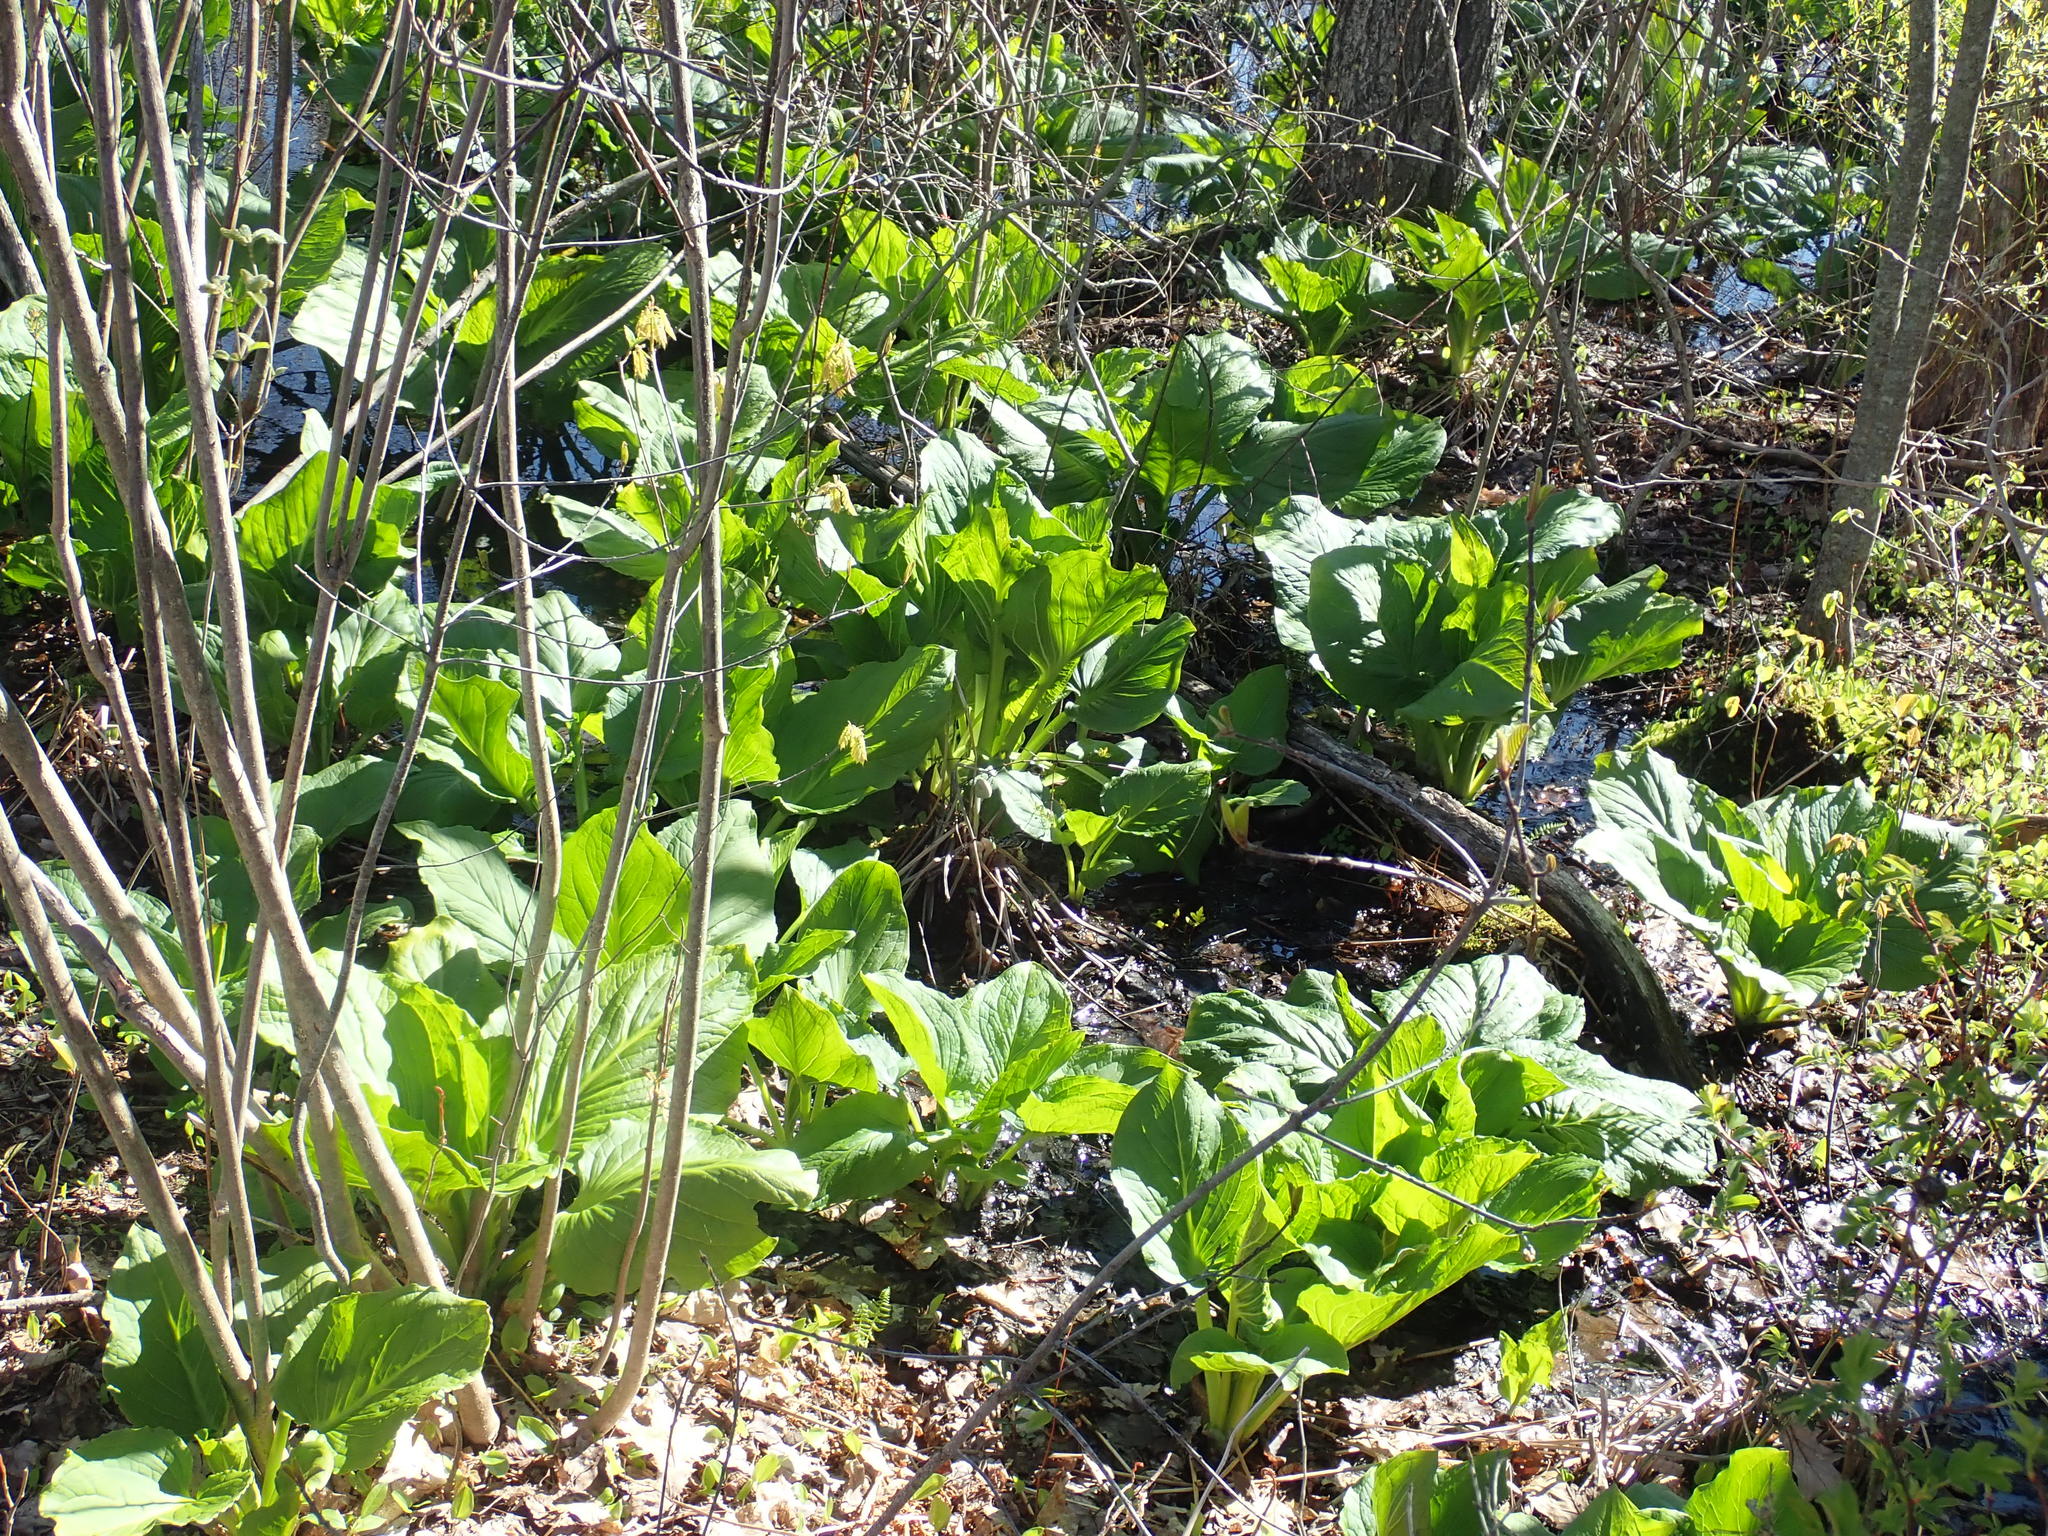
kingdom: Plantae
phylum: Tracheophyta
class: Liliopsida
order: Alismatales
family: Araceae
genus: Symplocarpus
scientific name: Symplocarpus foetidus
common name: Eastern skunk cabbage
